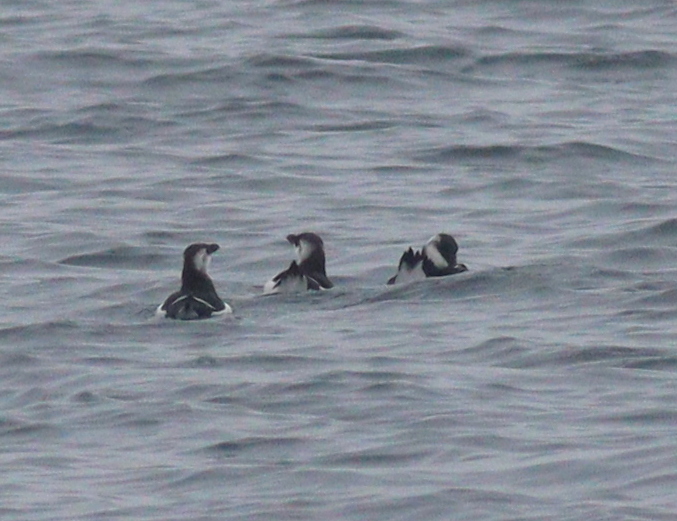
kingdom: Animalia
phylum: Chordata
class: Aves
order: Charadriiformes
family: Alcidae
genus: Alca
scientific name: Alca torda
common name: Razorbill
